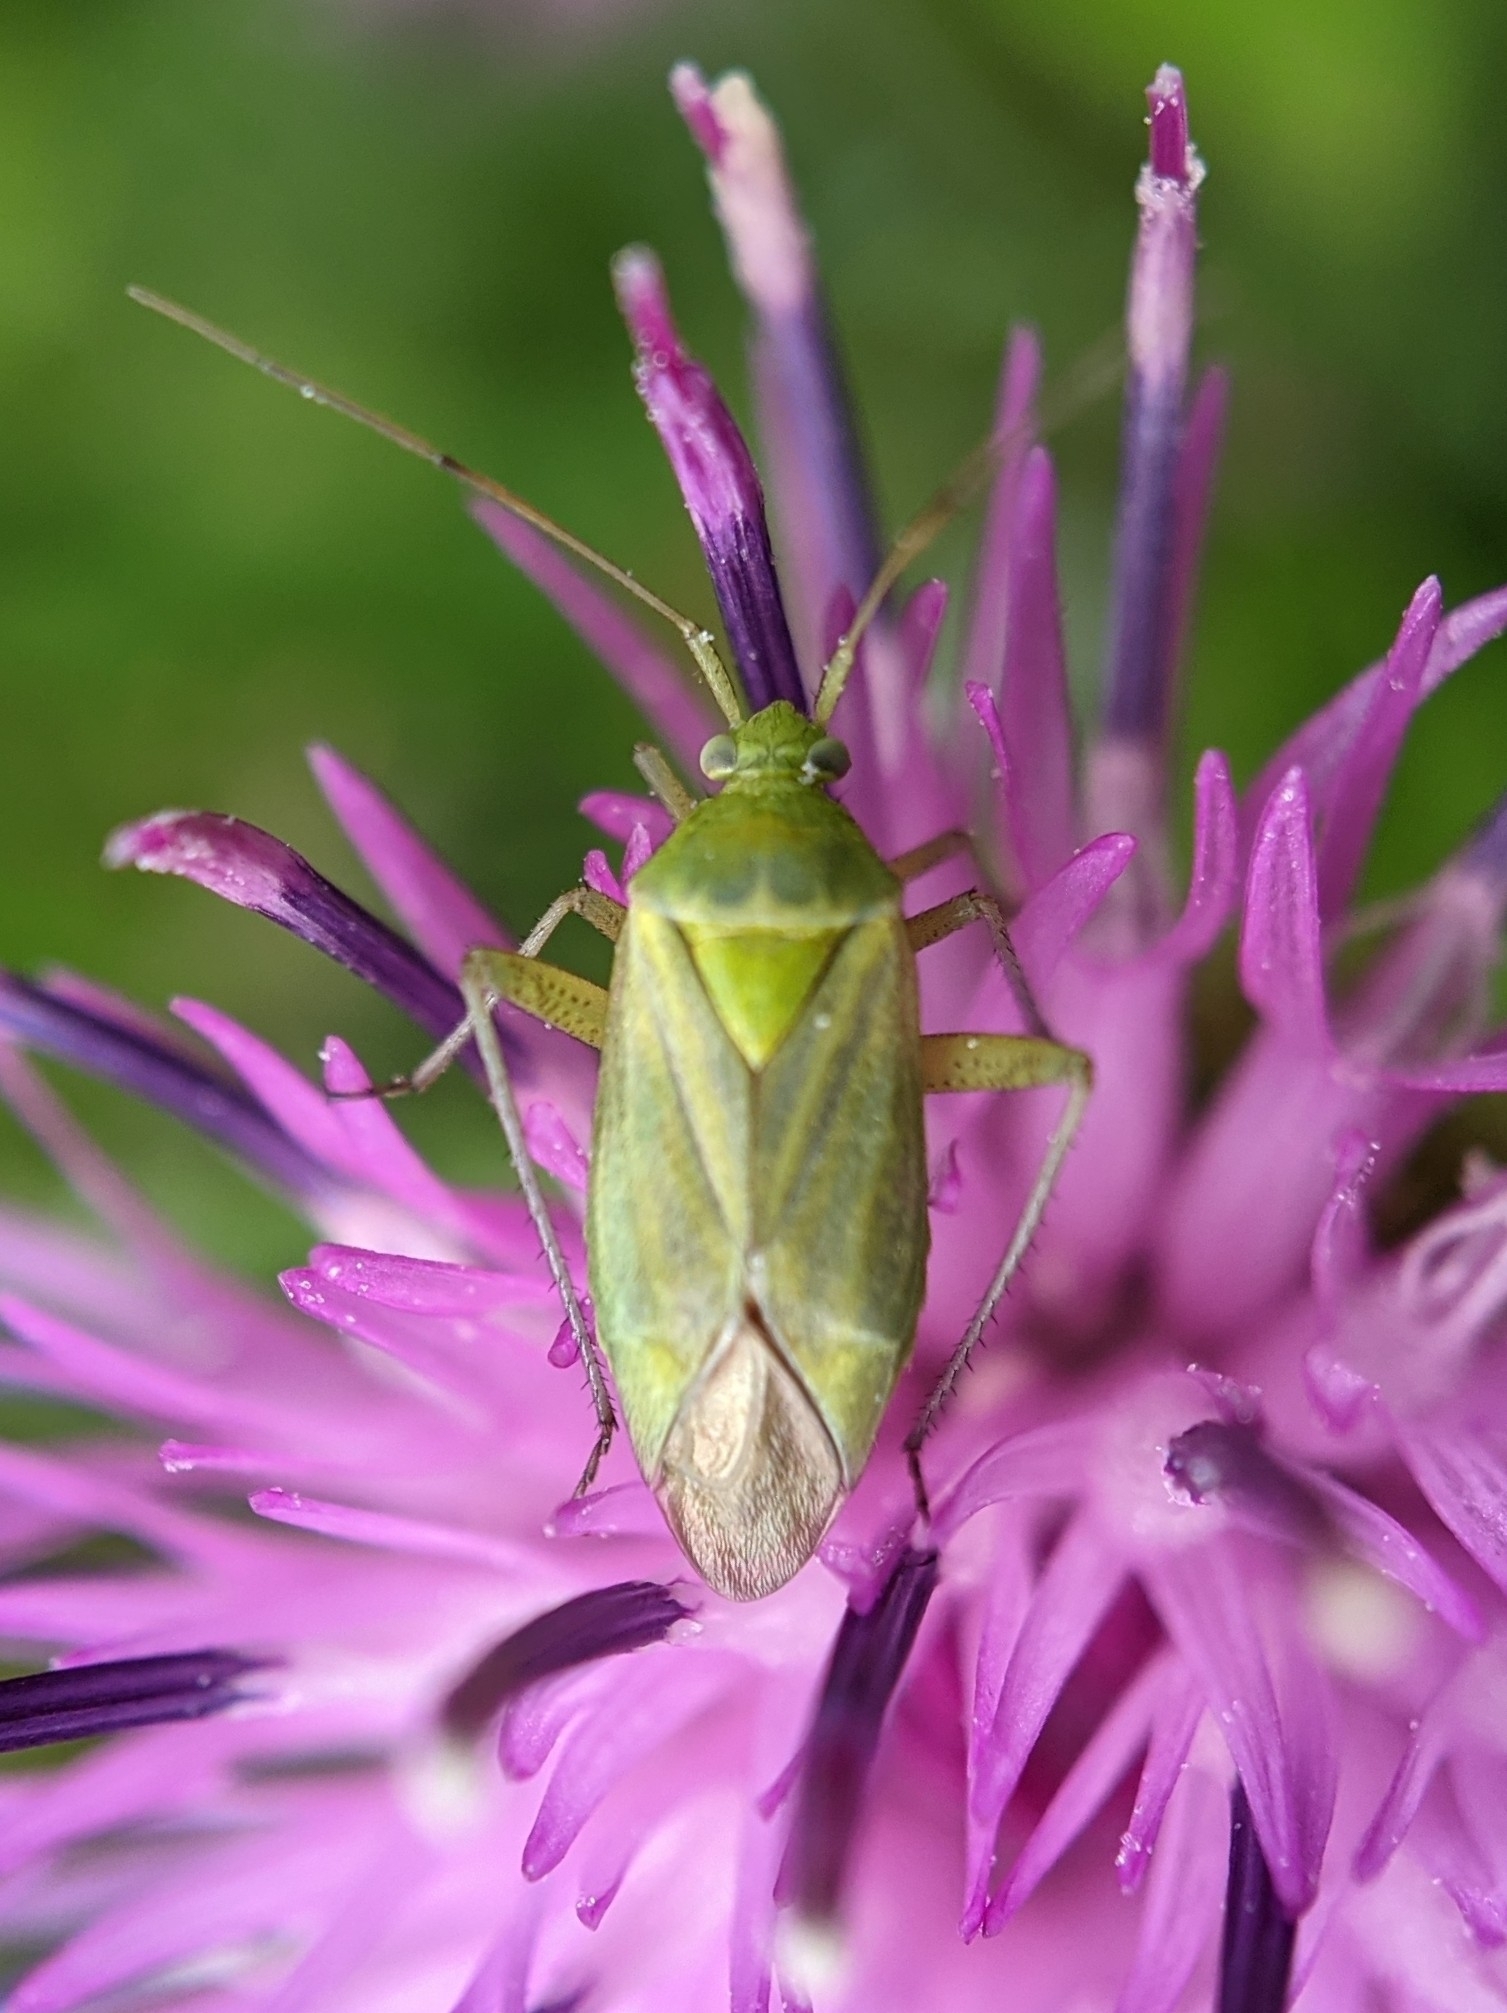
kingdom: Animalia
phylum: Arthropoda
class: Insecta
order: Hemiptera
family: Miridae
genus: Closterotomus
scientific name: Closterotomus norvegicus
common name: Plant bug
